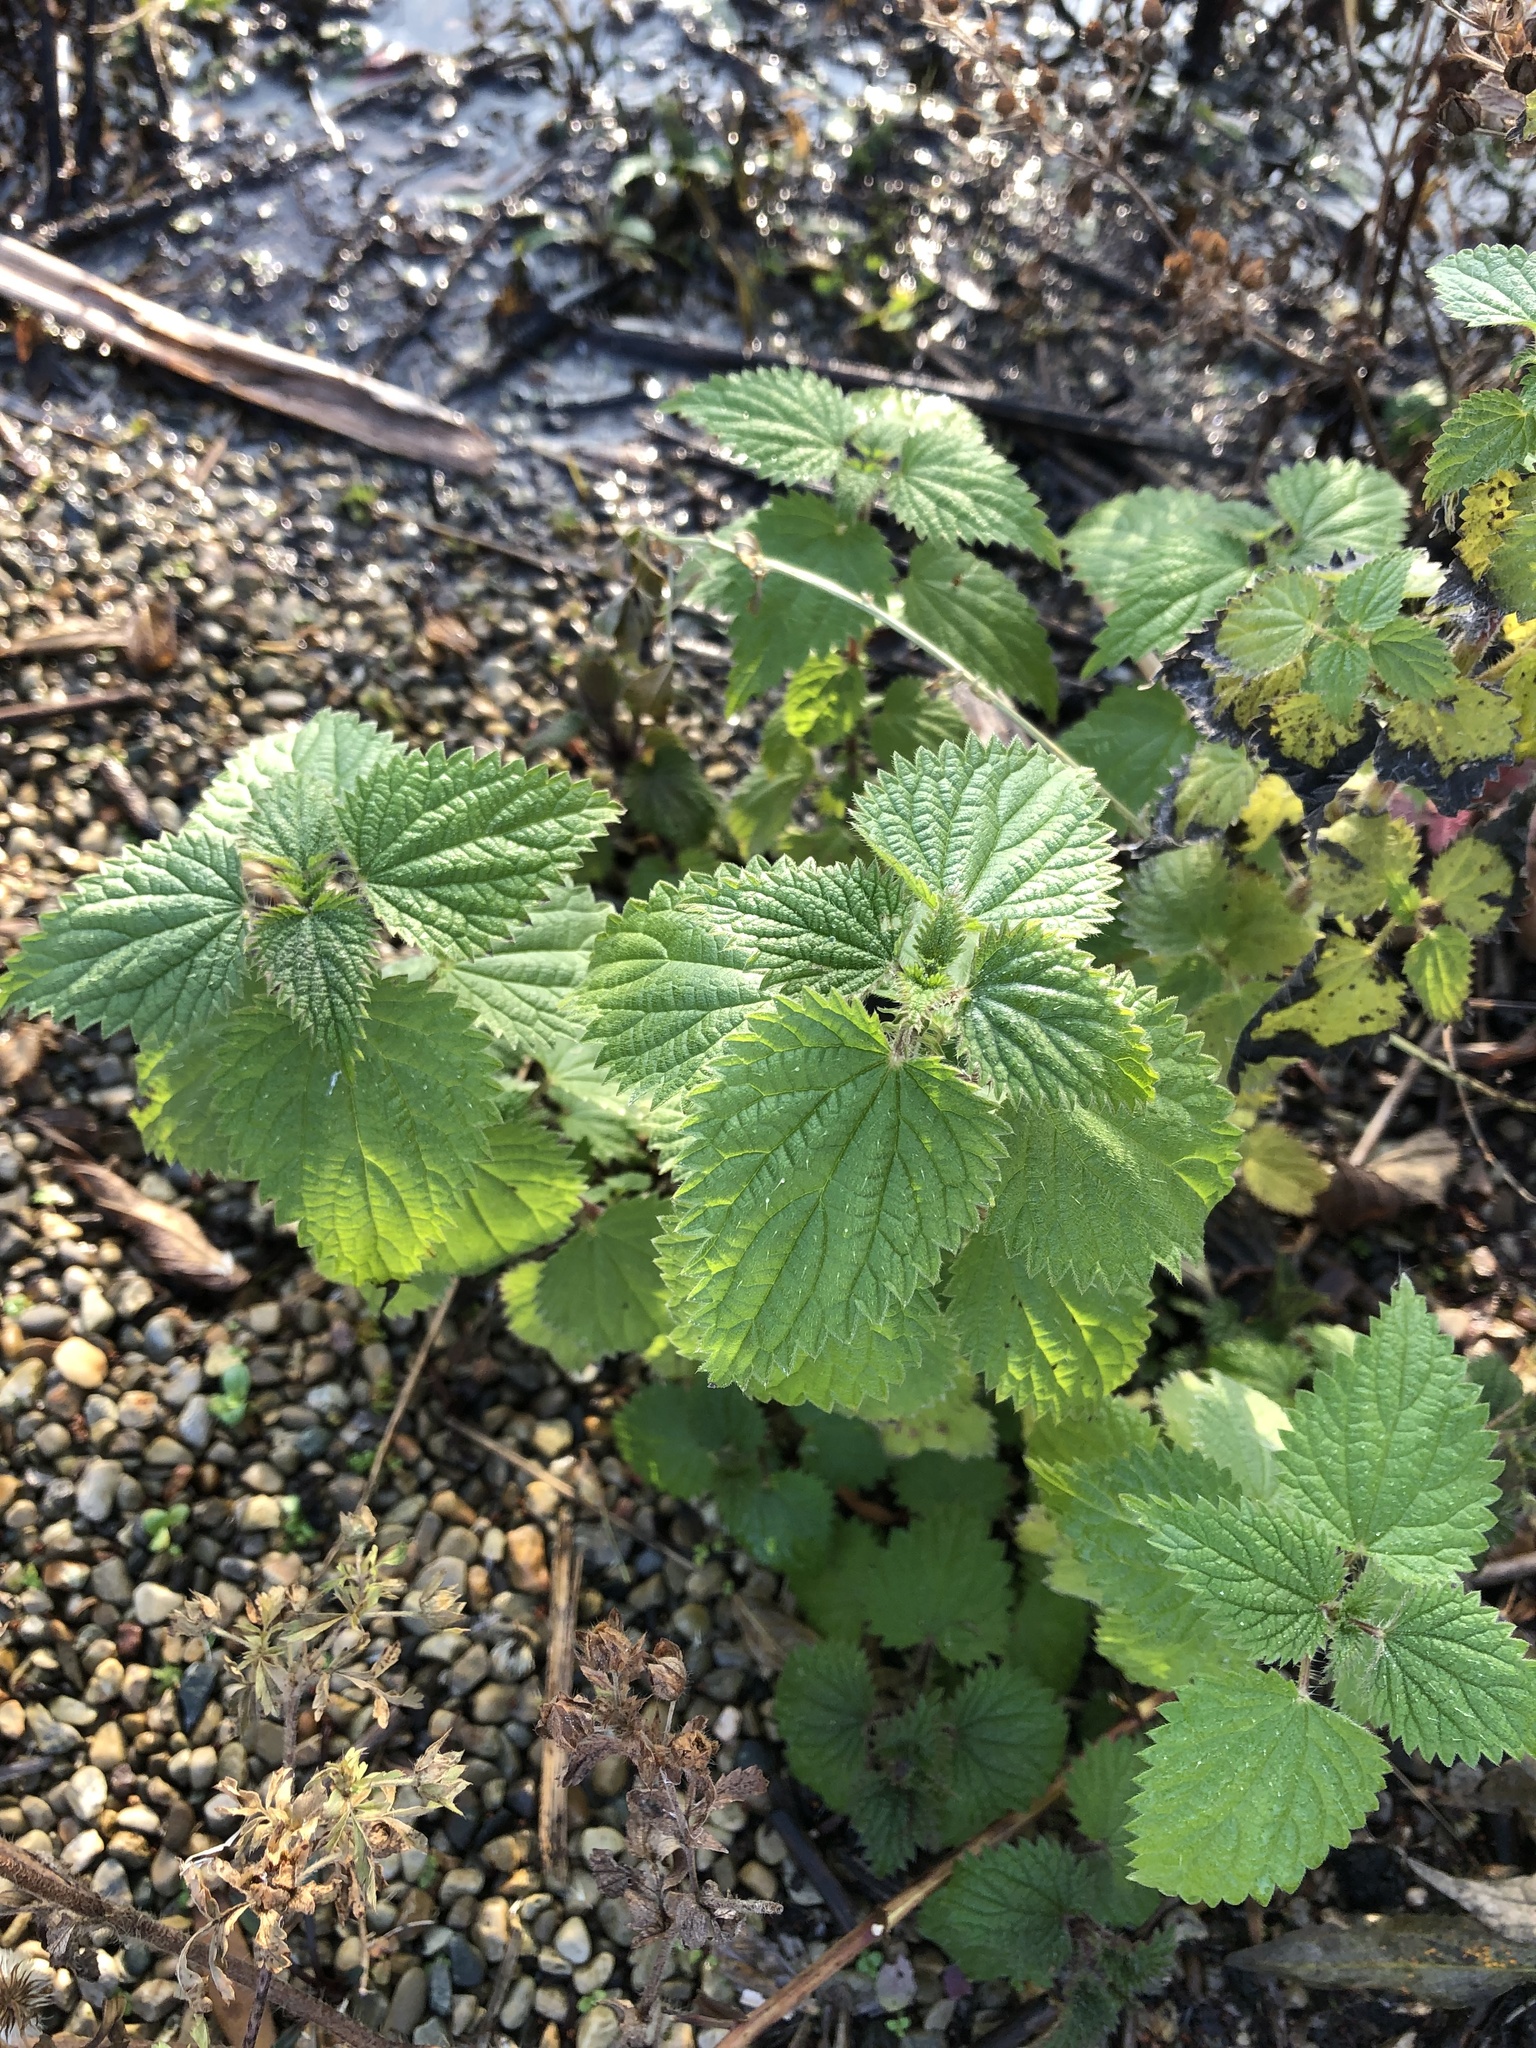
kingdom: Plantae
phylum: Tracheophyta
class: Magnoliopsida
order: Rosales
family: Urticaceae
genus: Urtica
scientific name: Urtica dioica
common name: Common nettle
